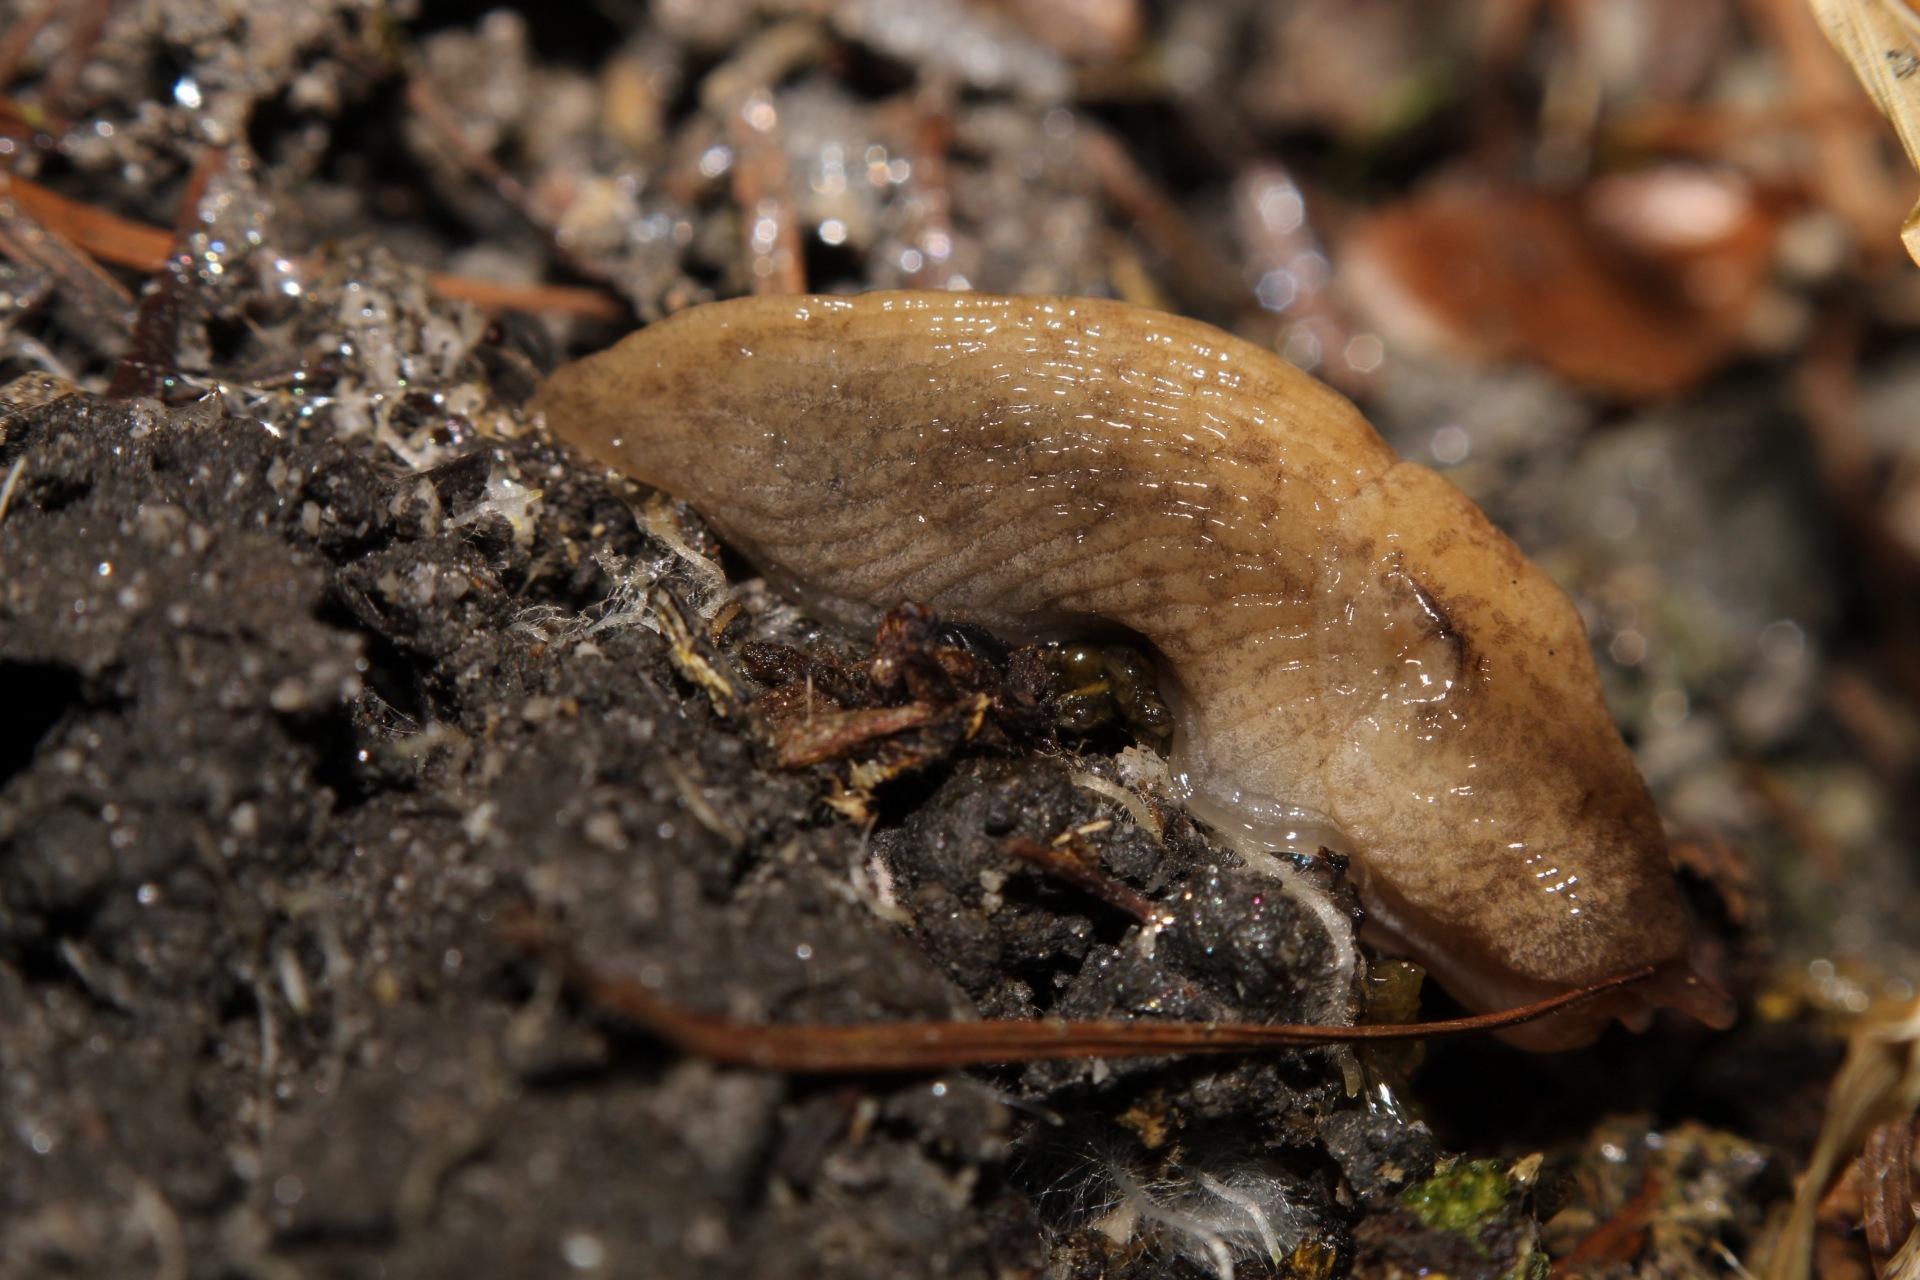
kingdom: Animalia
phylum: Mollusca
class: Gastropoda
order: Stylommatophora
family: Agriolimacidae
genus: Deroceras
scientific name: Deroceras invadens
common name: Caruana's slug
